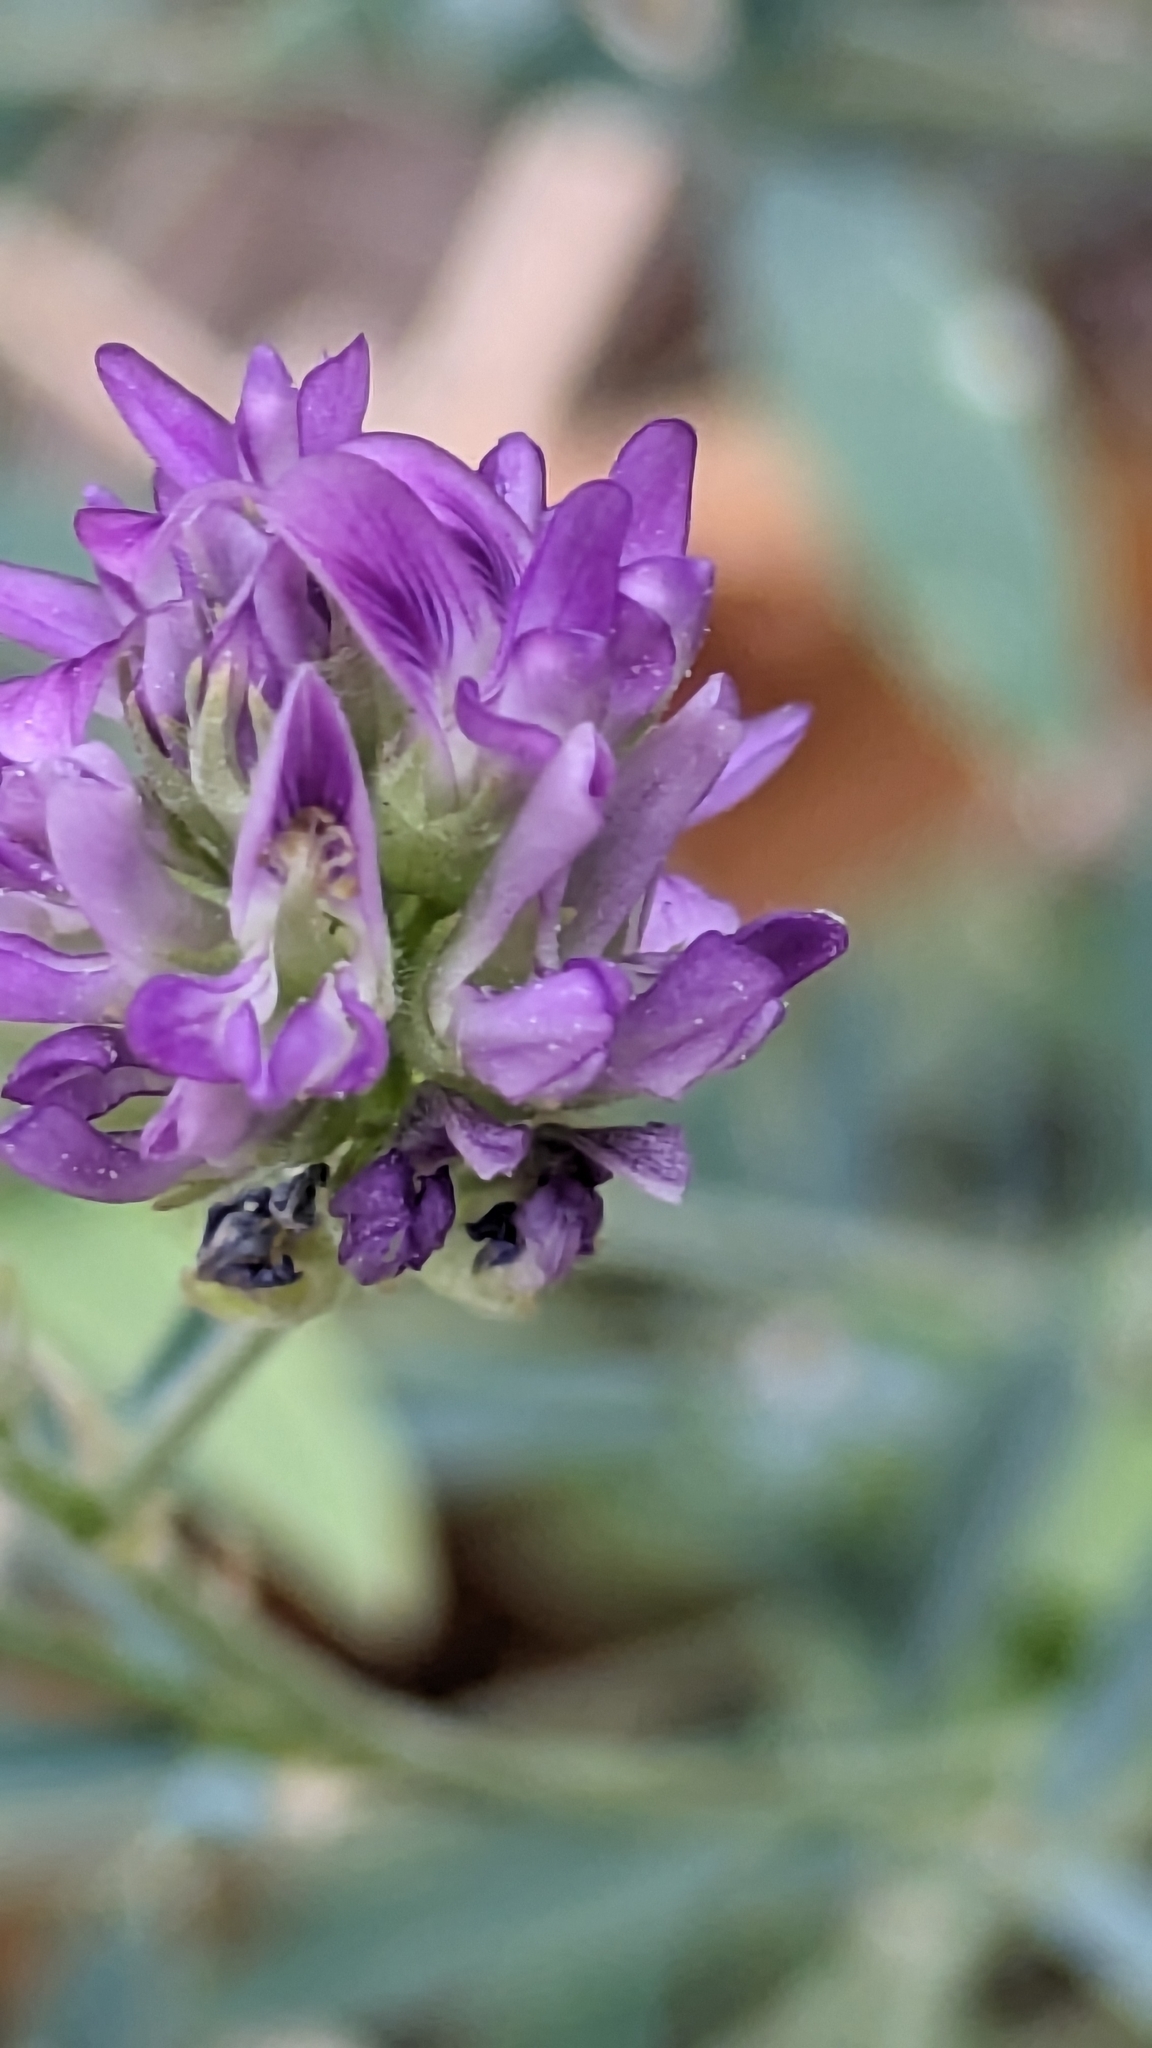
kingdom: Plantae
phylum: Tracheophyta
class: Magnoliopsida
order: Fabales
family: Fabaceae
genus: Medicago
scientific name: Medicago sativa
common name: Alfalfa
